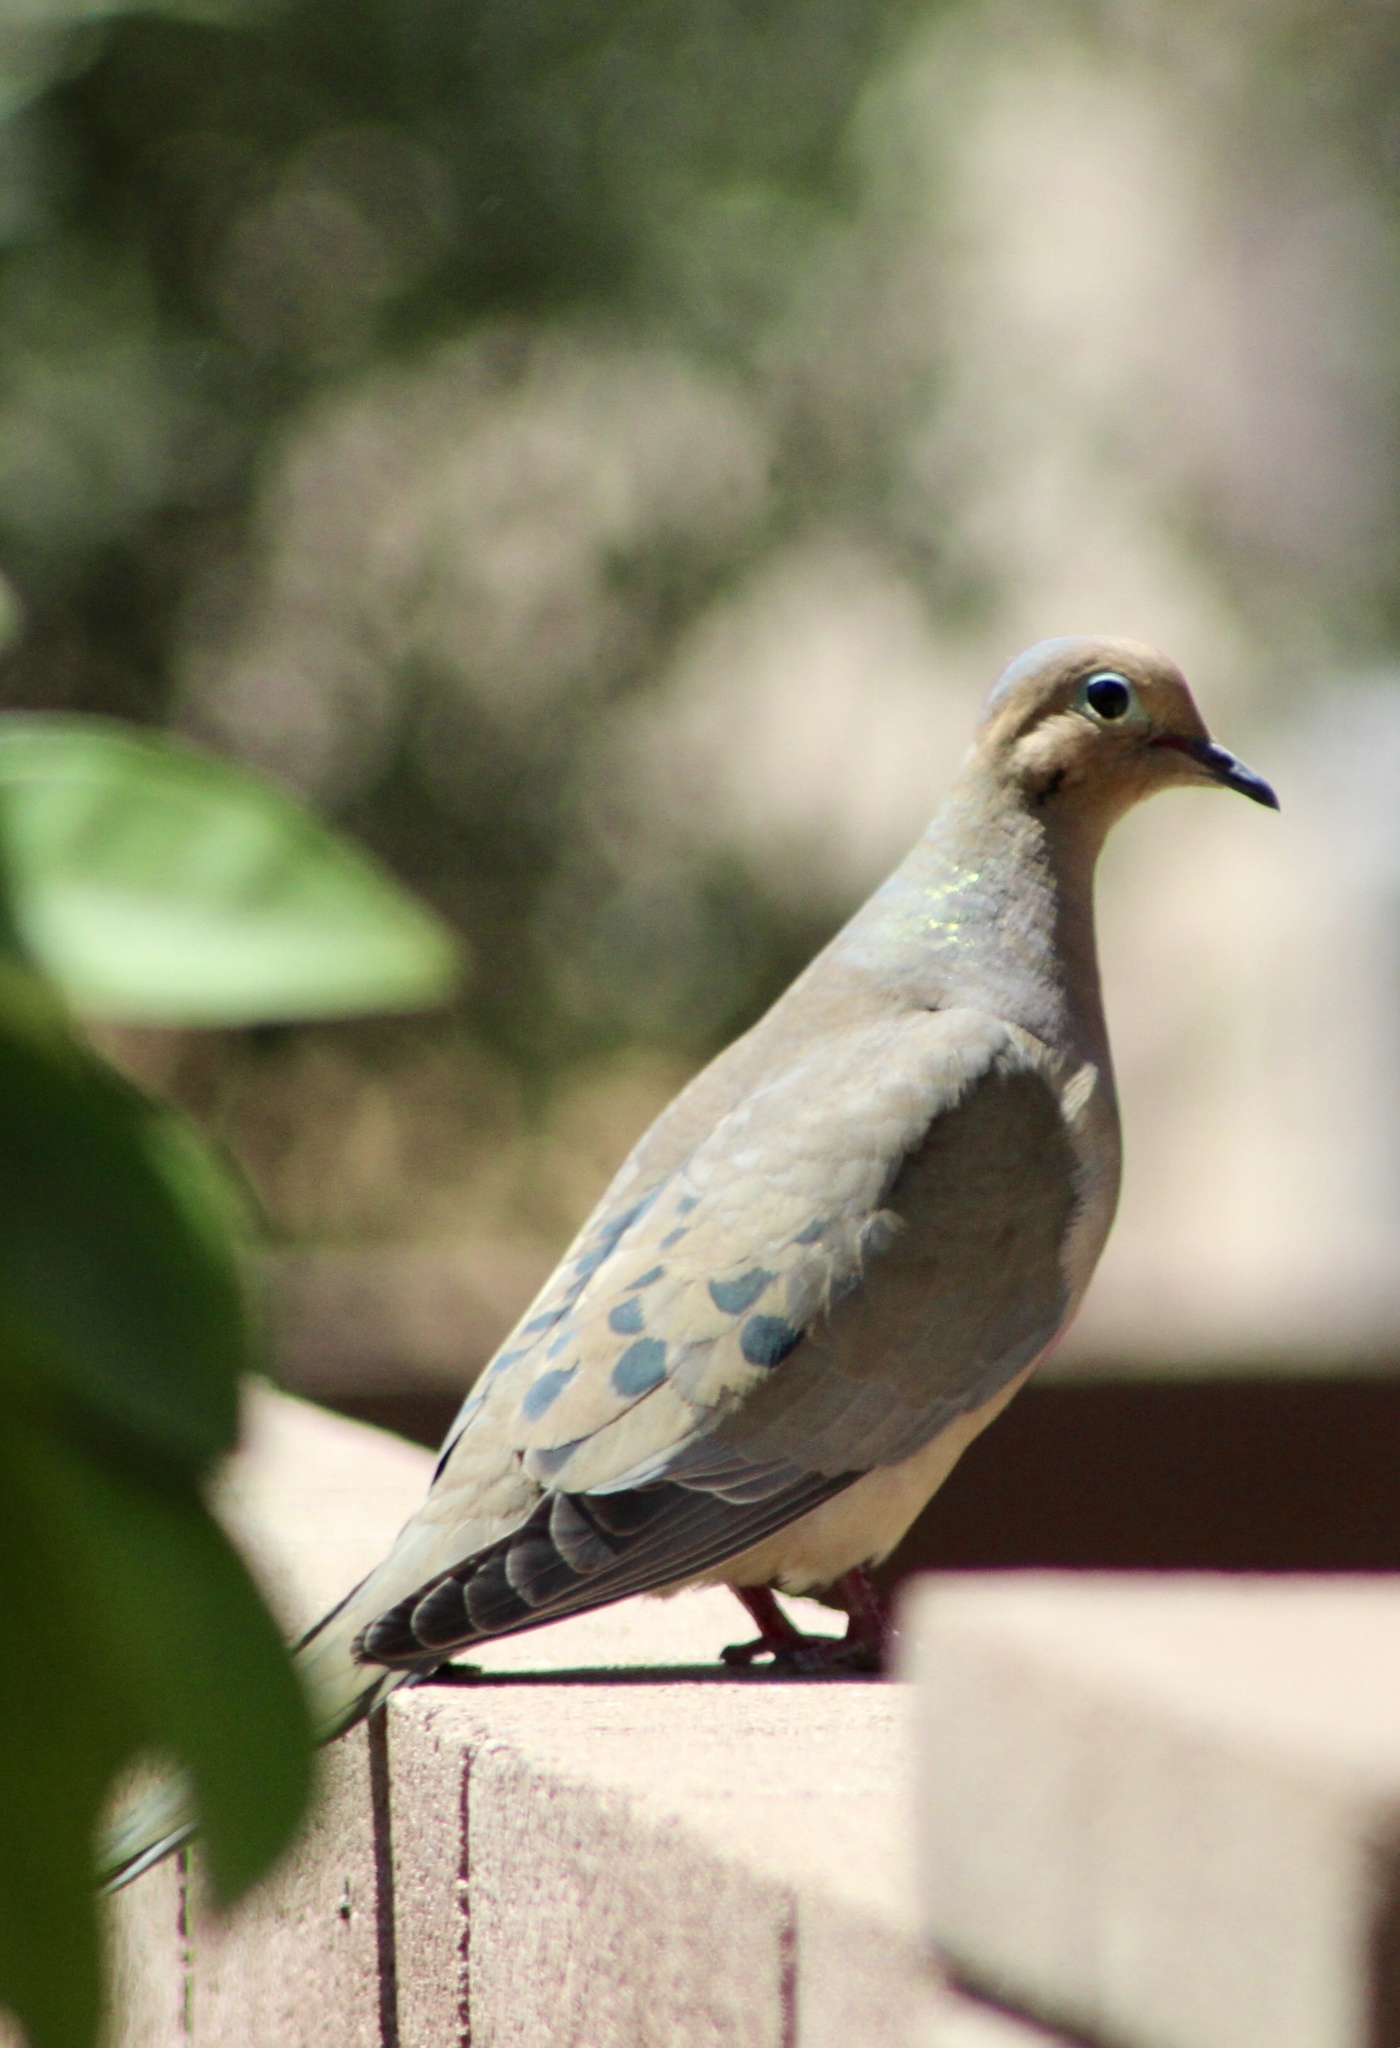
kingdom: Animalia
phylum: Chordata
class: Aves
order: Columbiformes
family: Columbidae
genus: Zenaida
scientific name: Zenaida macroura
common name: Mourning dove
